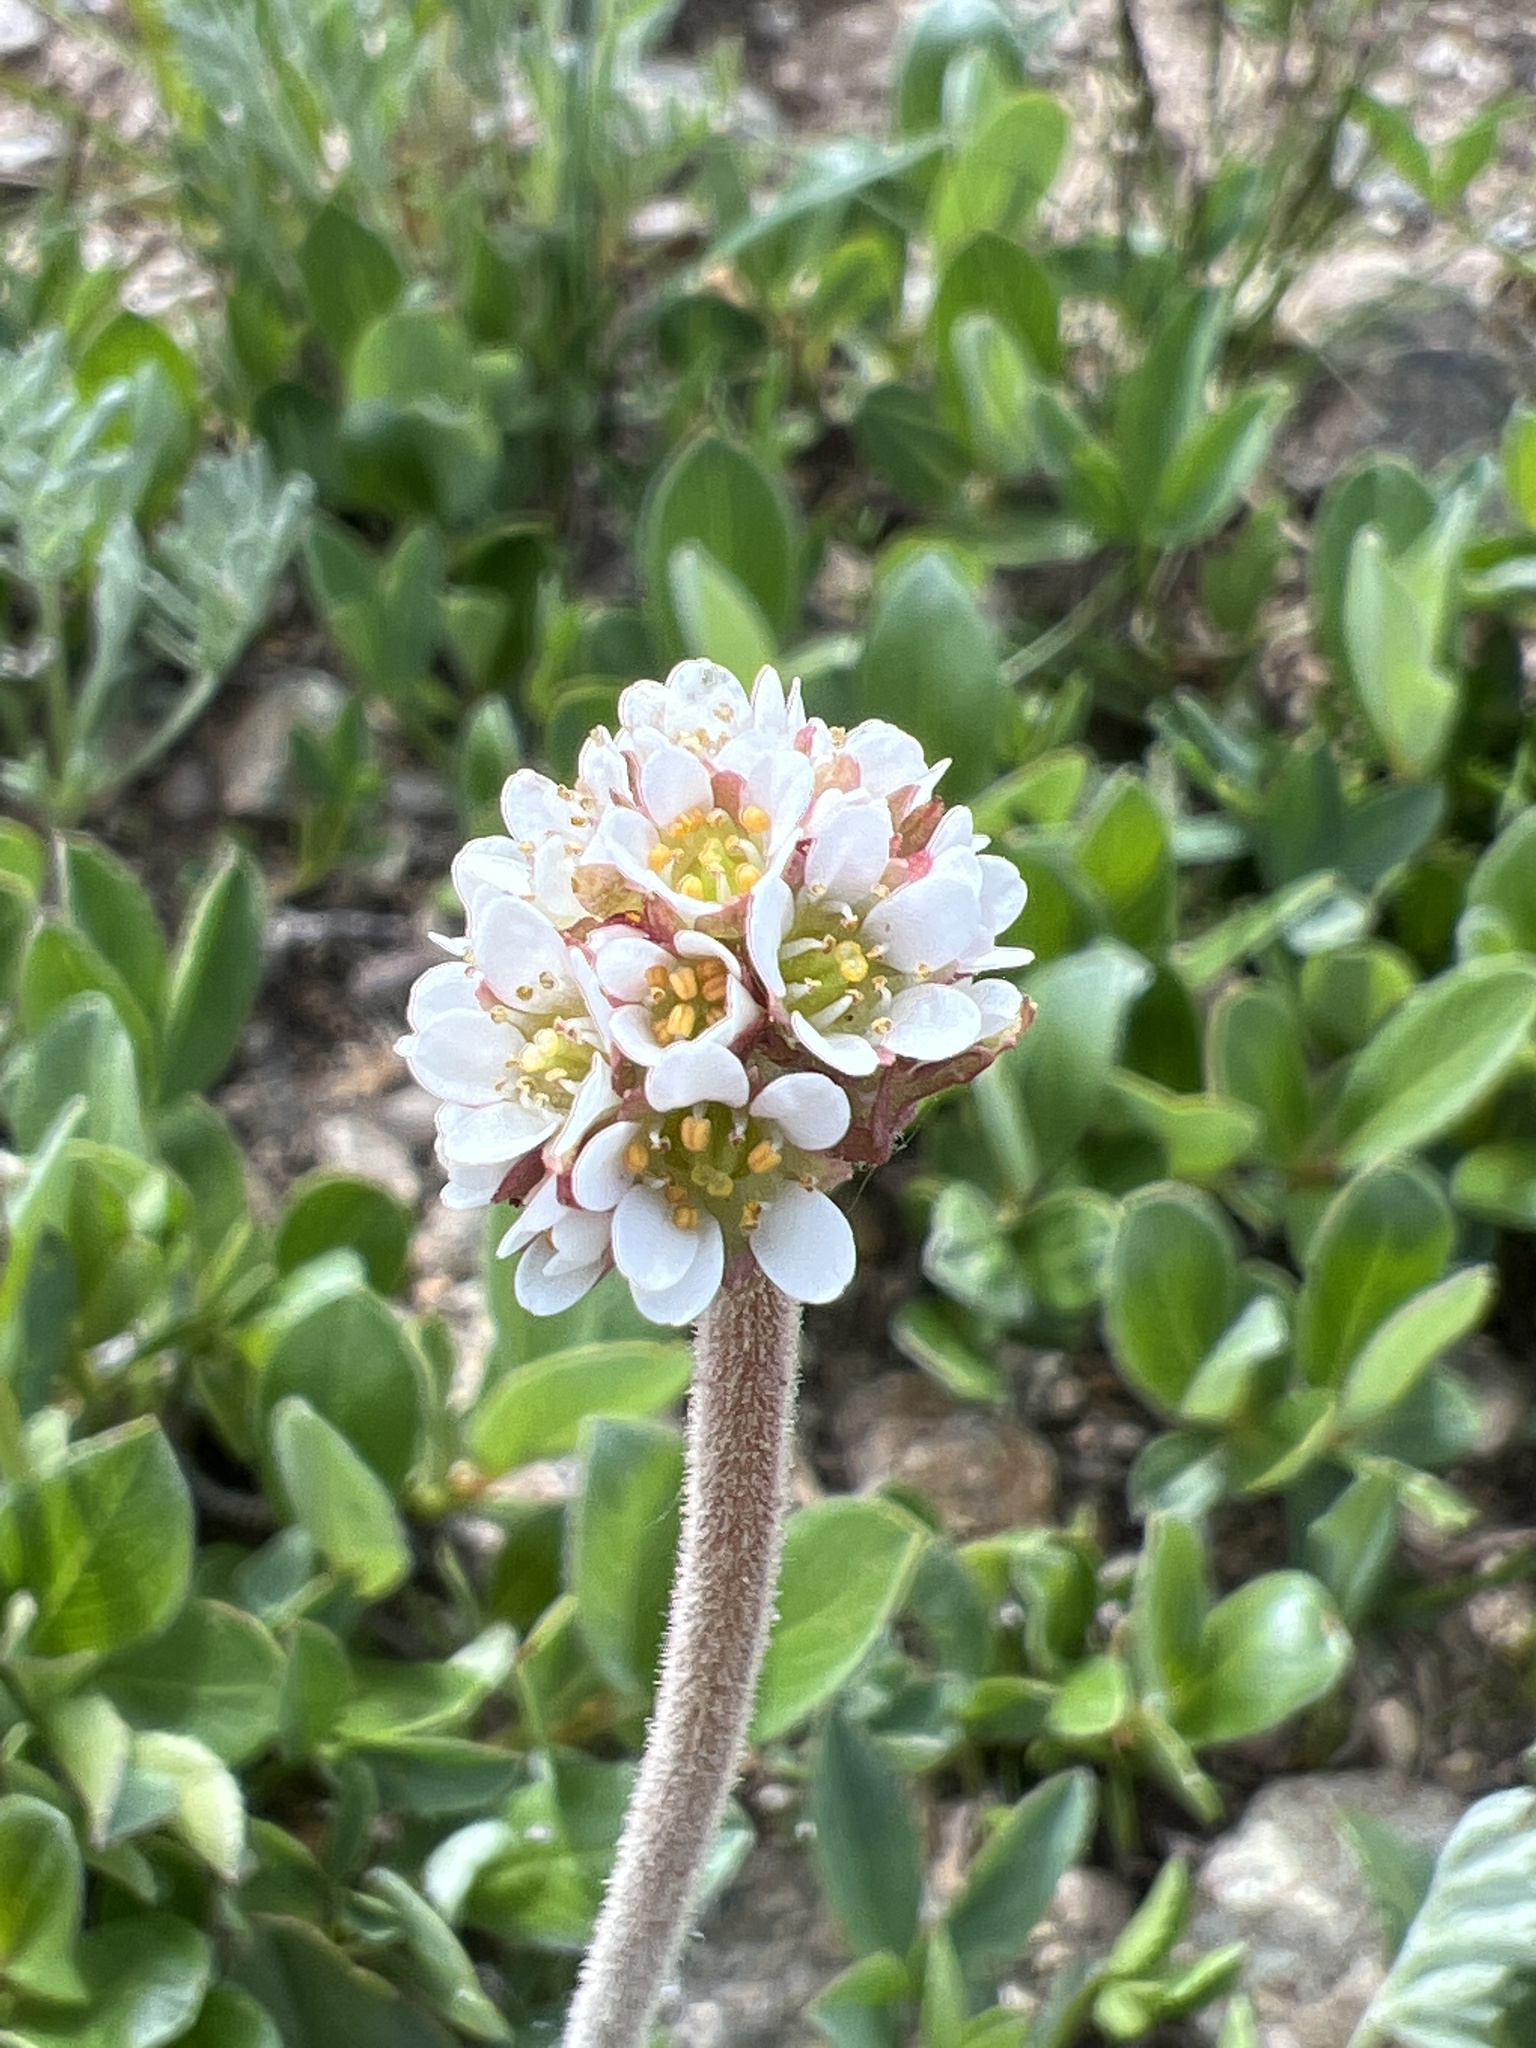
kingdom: Plantae
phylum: Tracheophyta
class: Magnoliopsida
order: Saxifragales
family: Saxifragaceae
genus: Micranthes
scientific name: Micranthes rhomboidea
